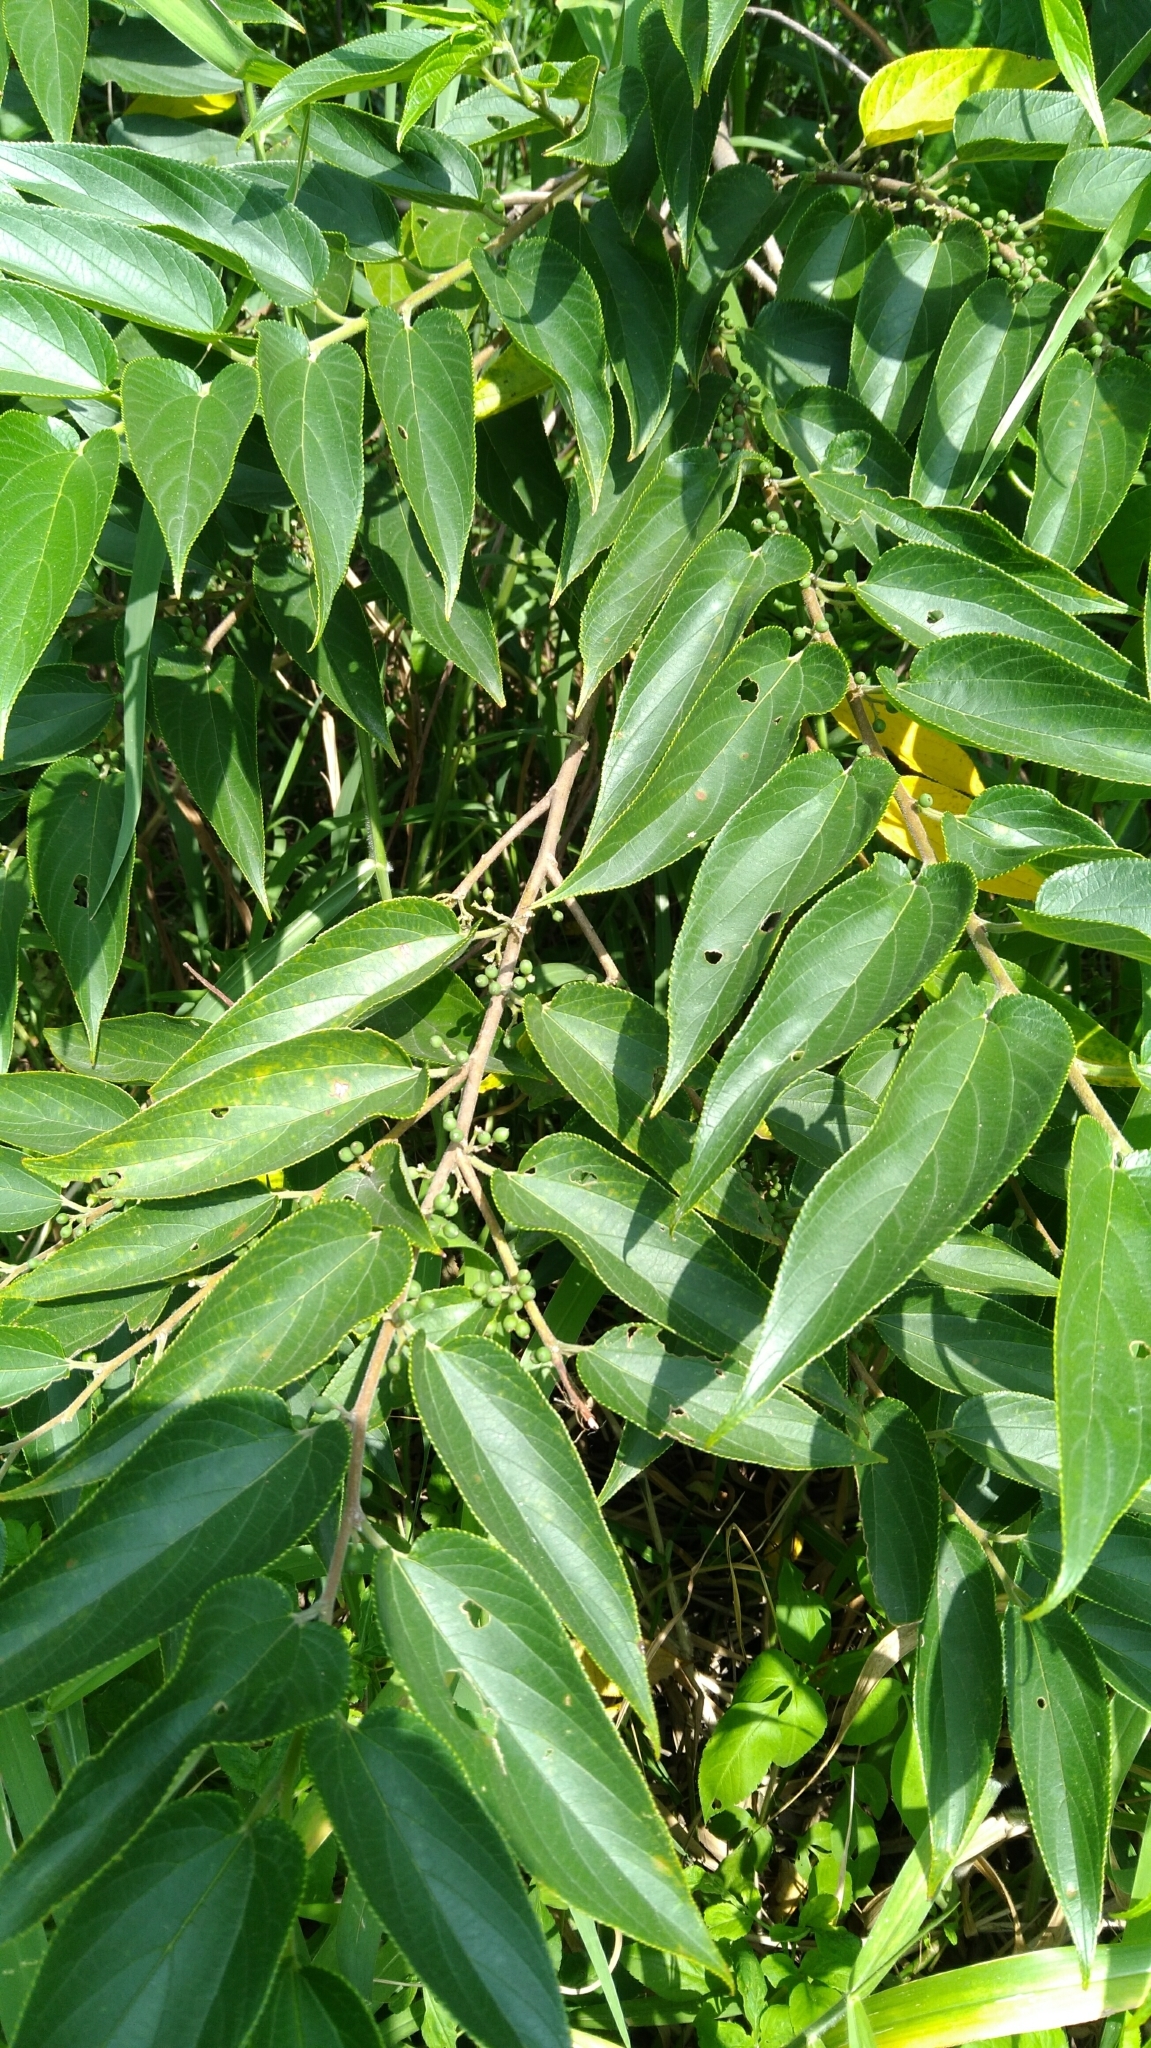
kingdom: Plantae
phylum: Tracheophyta
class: Magnoliopsida
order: Rosales
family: Cannabaceae
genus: Trema
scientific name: Trema orientale
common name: Indian charcoal tree
